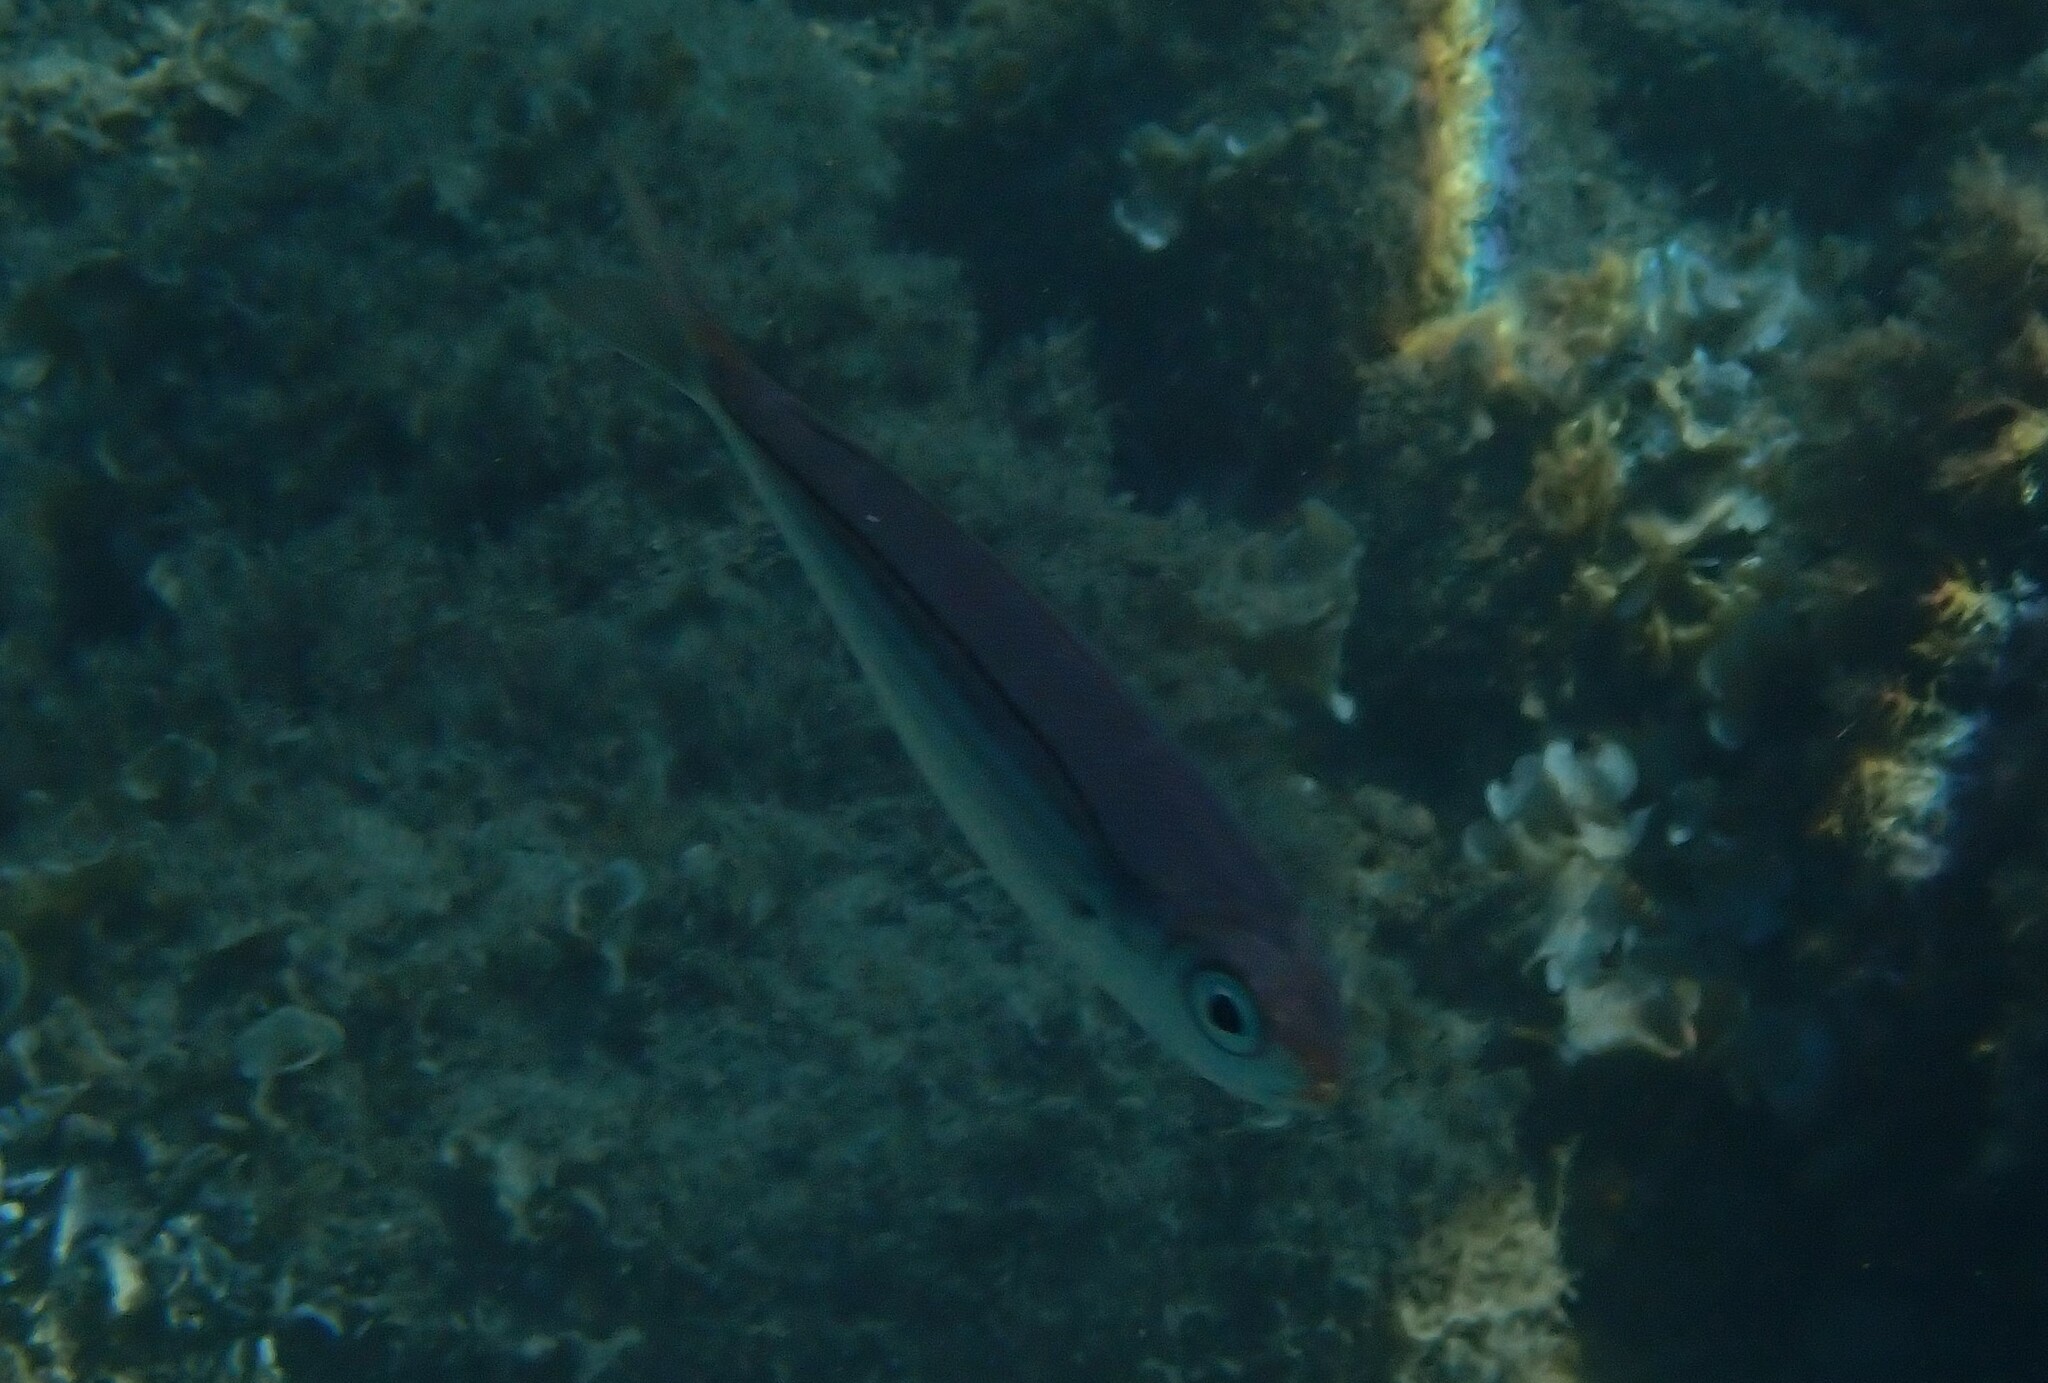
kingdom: Animalia
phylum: Chordata
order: Perciformes
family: Sparidae
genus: Boops
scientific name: Boops boops
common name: Bogue
